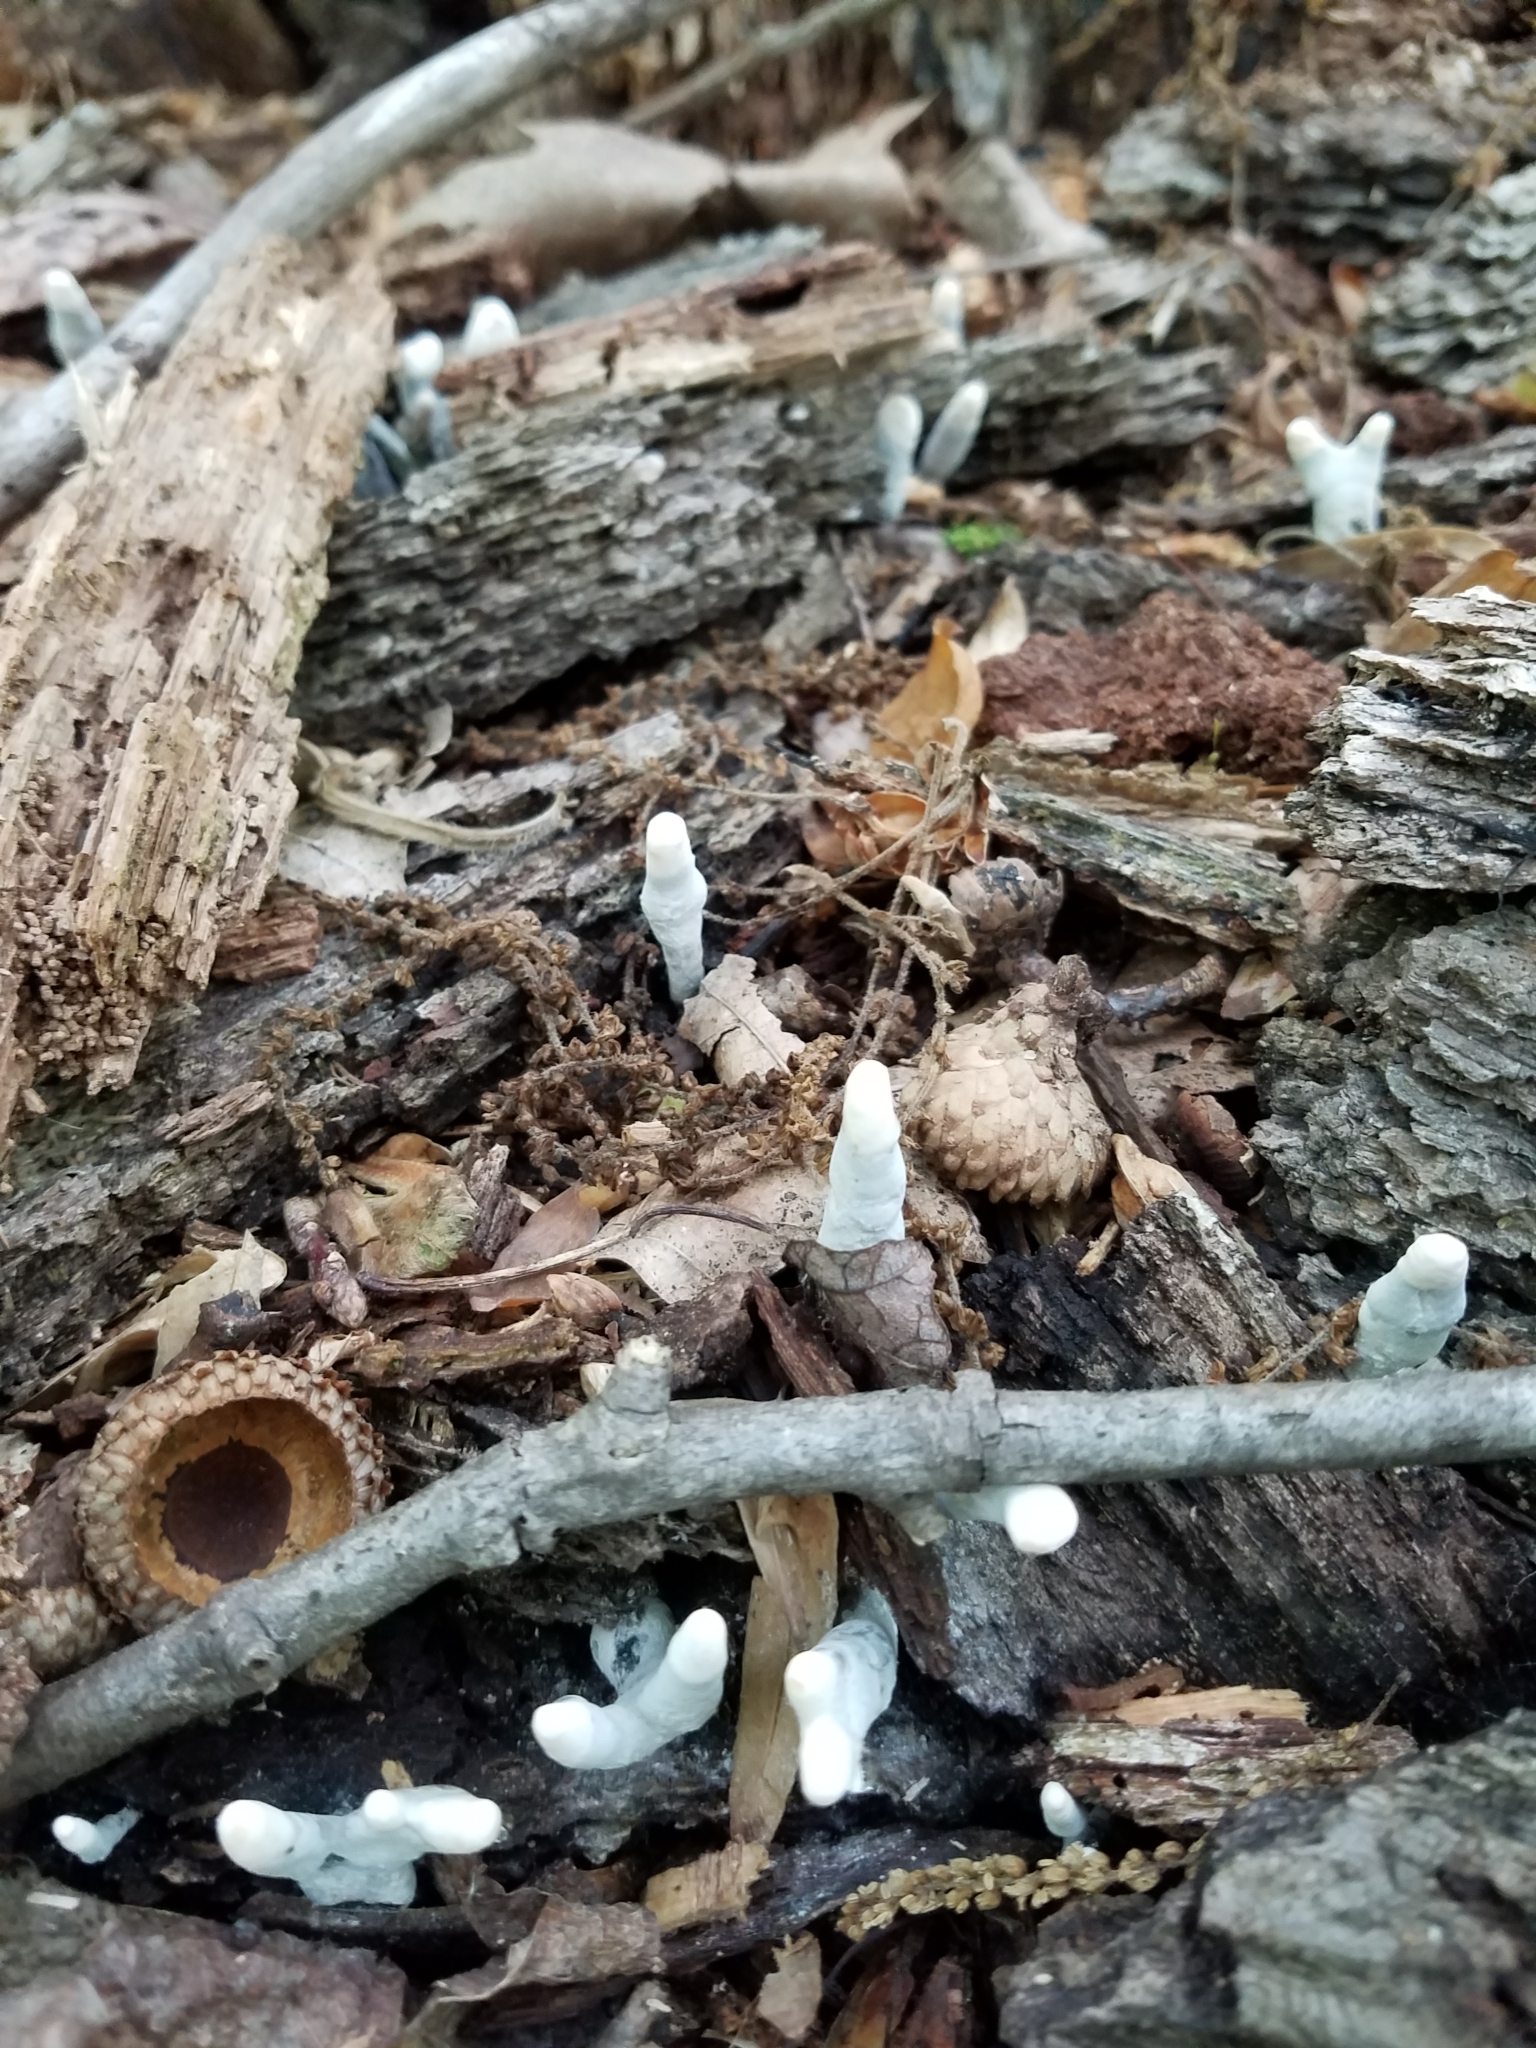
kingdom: Fungi
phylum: Ascomycota
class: Sordariomycetes
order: Xylariales
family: Xylariaceae
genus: Xylaria
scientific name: Xylaria polymorpha
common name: Dead man's fingers
